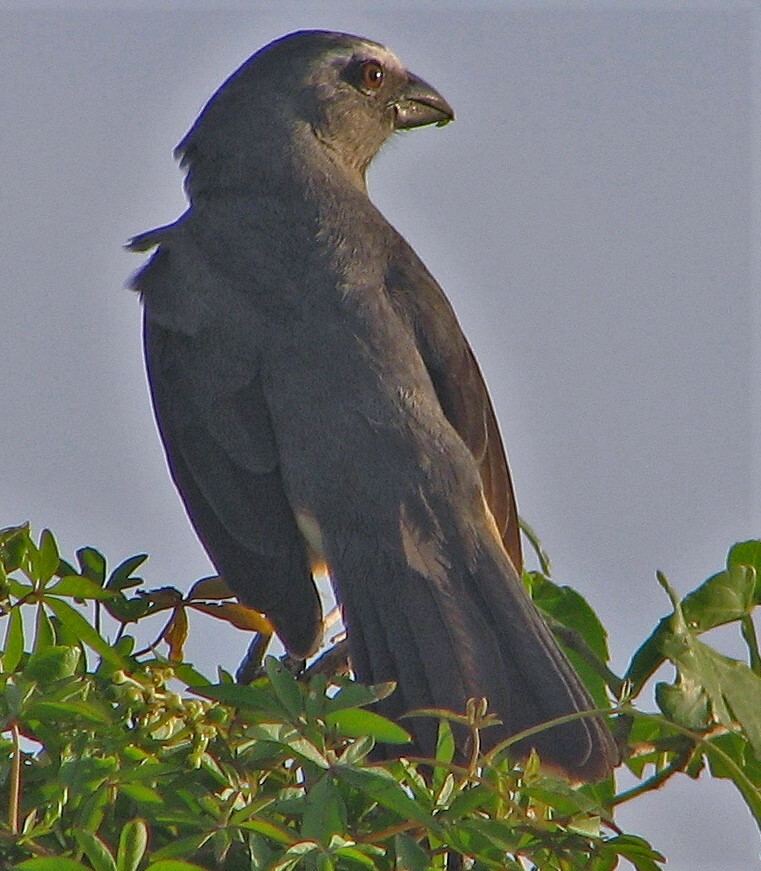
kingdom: Animalia
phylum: Chordata
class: Aves
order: Passeriformes
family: Thraupidae
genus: Saltator
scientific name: Saltator coerulescens
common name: Grayish saltator
